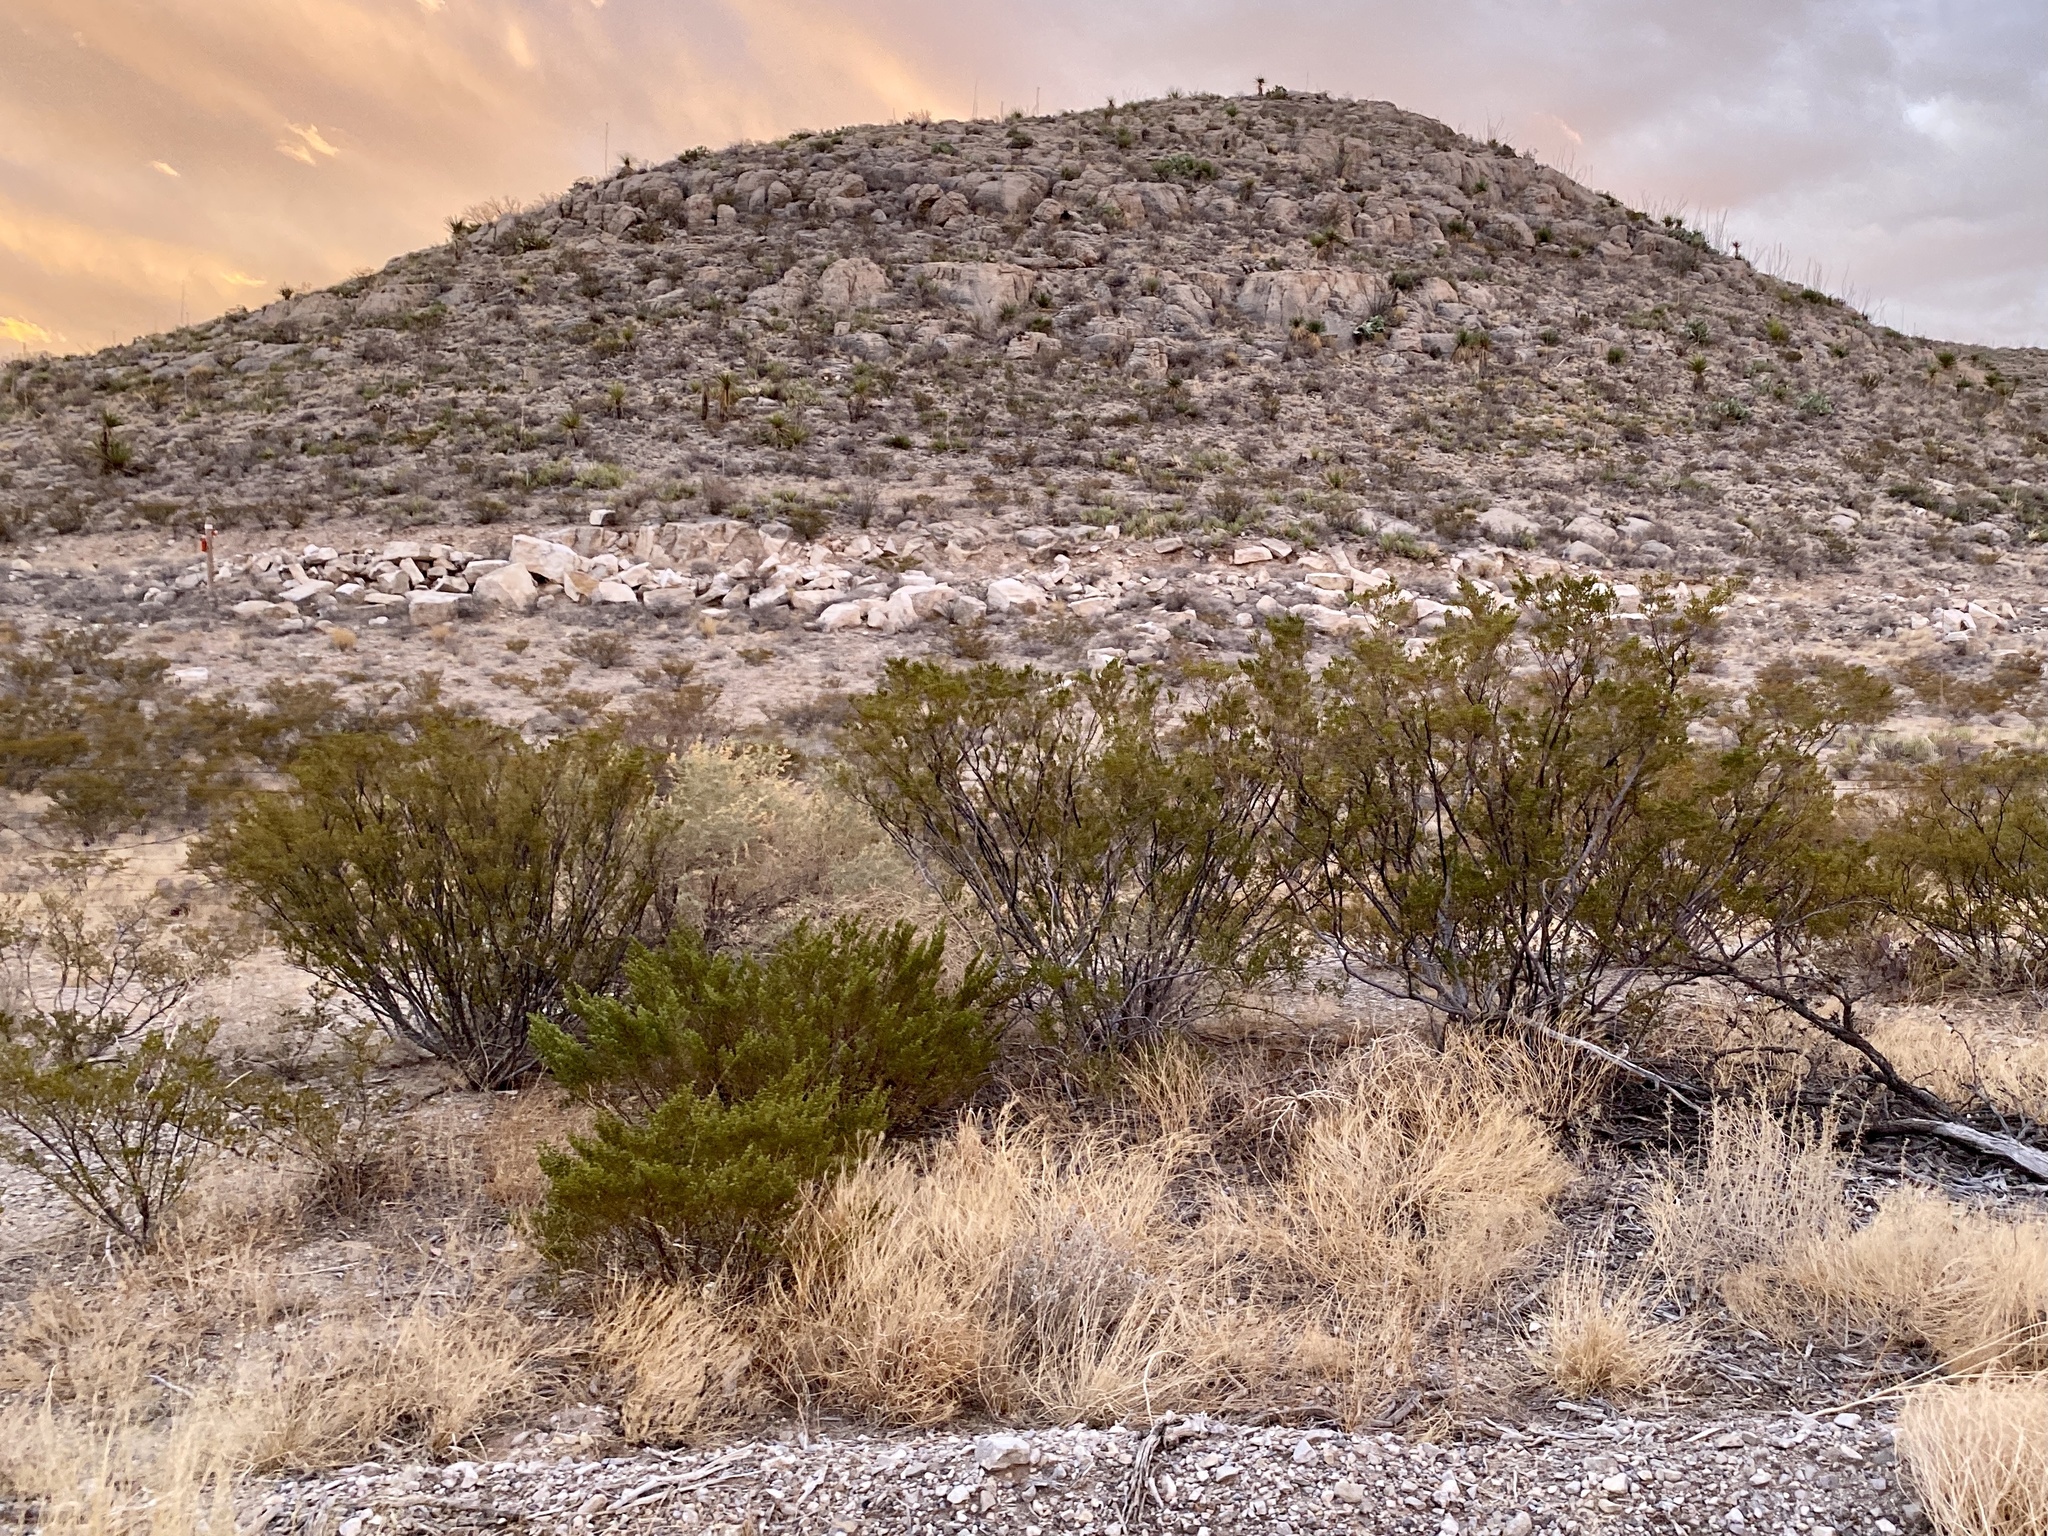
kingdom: Plantae
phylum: Tracheophyta
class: Magnoliopsida
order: Zygophyllales
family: Zygophyllaceae
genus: Larrea
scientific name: Larrea tridentata
